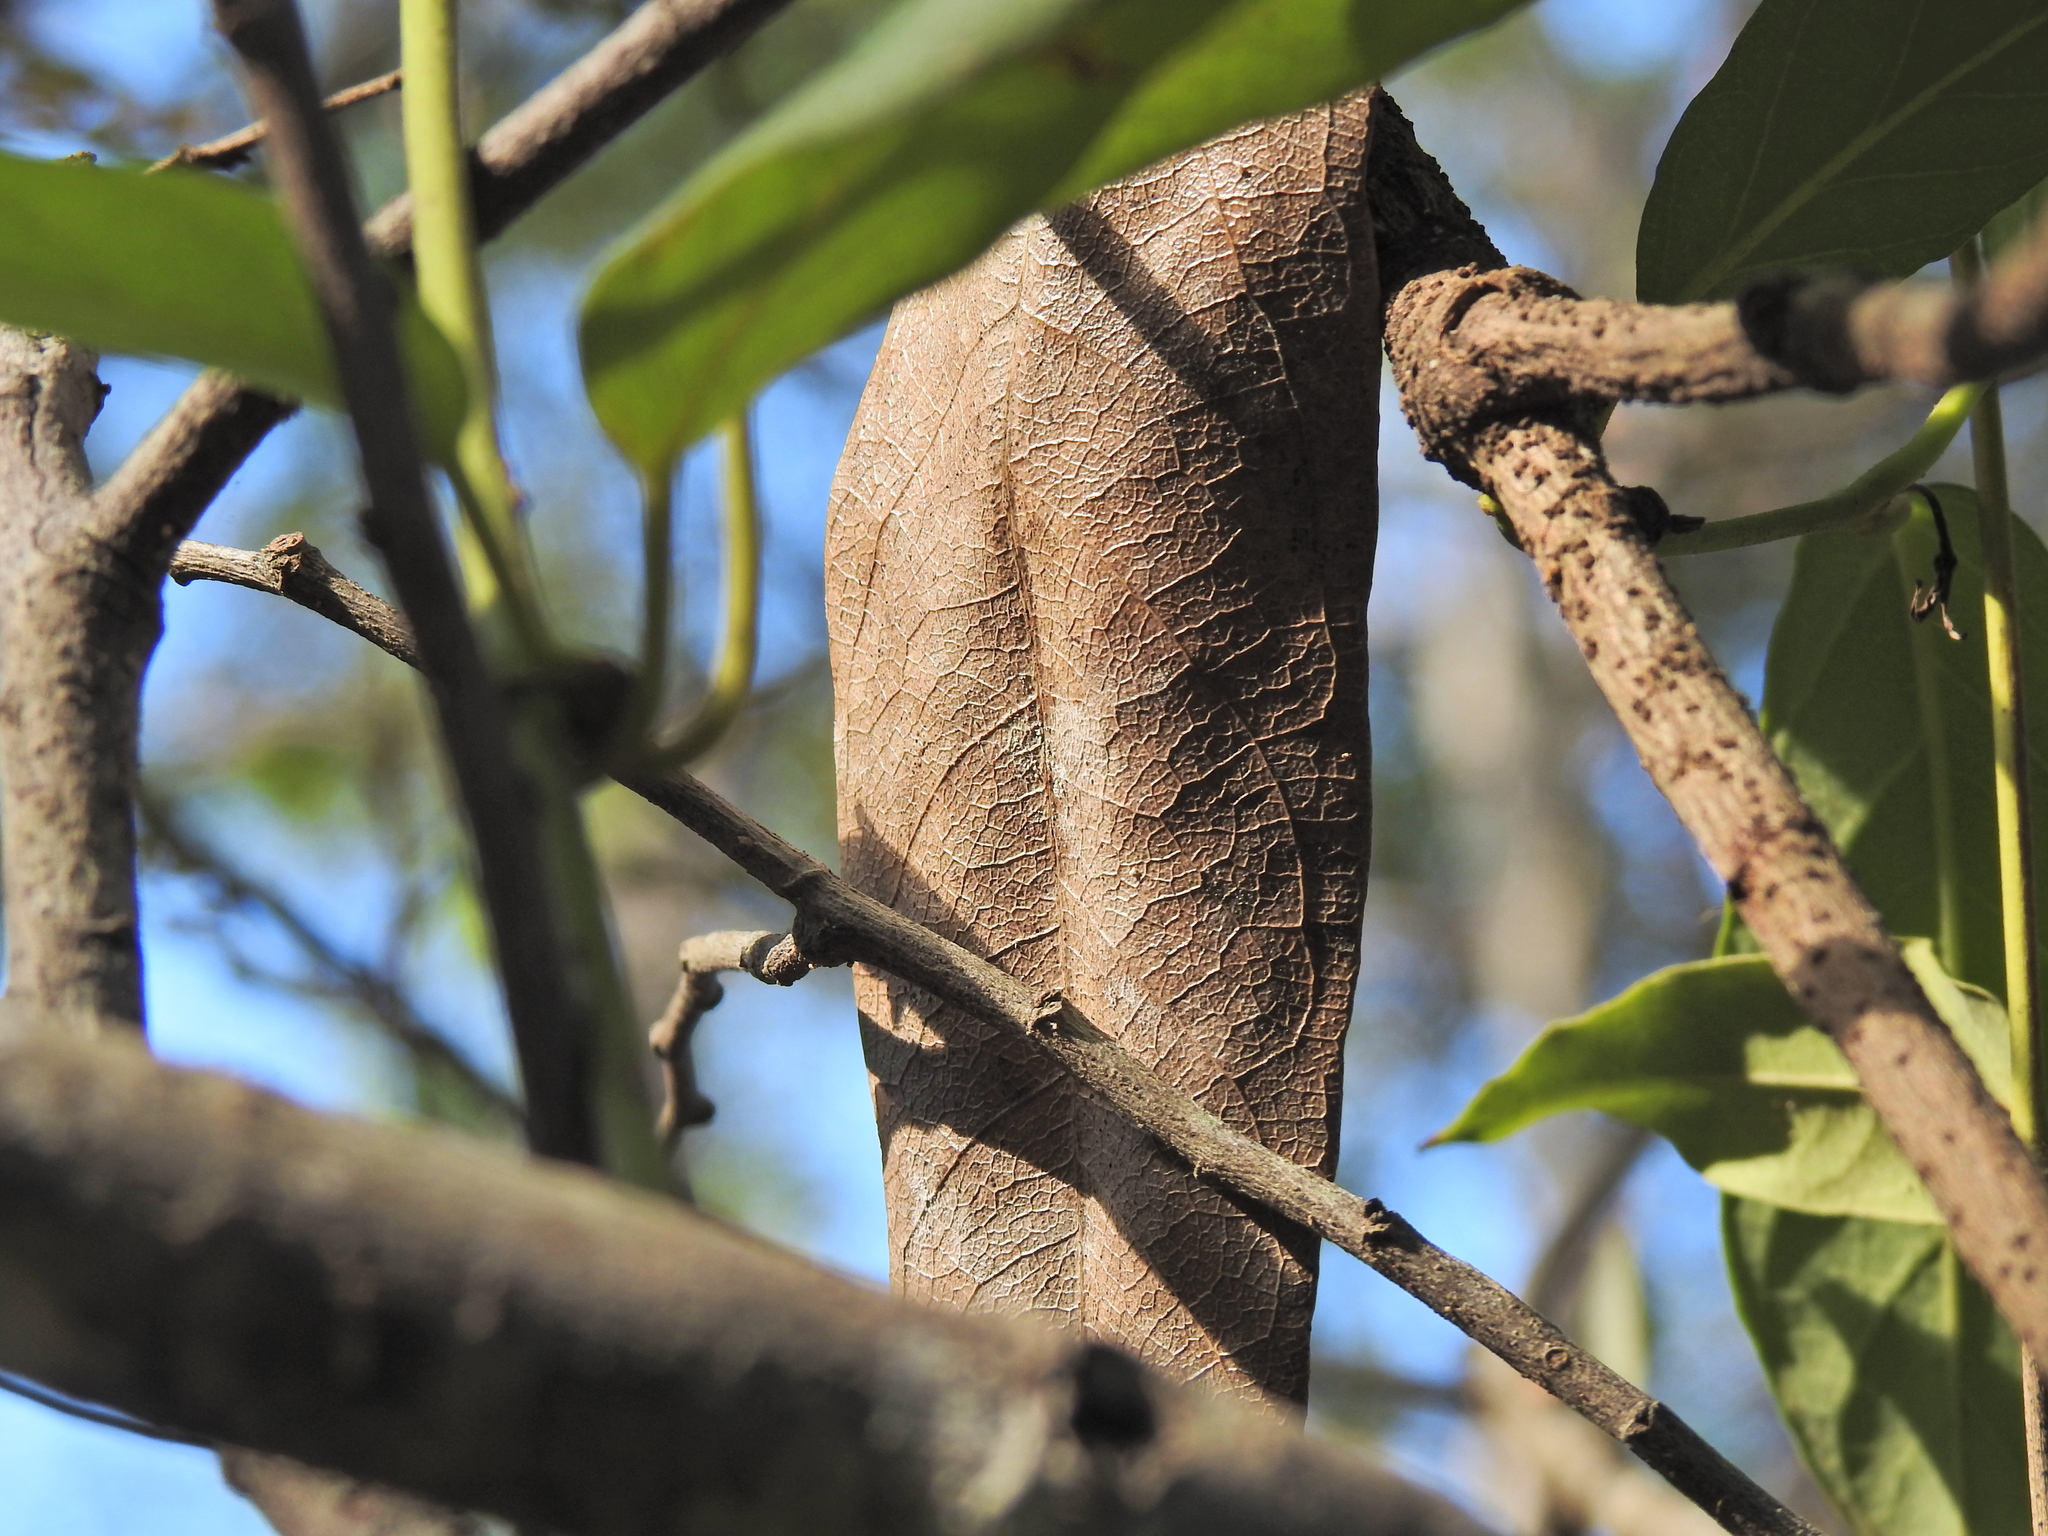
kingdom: Plantae
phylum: Tracheophyta
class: Magnoliopsida
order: Gentianales
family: Apocynaceae
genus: Parsonsia
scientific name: Parsonsia straminea
